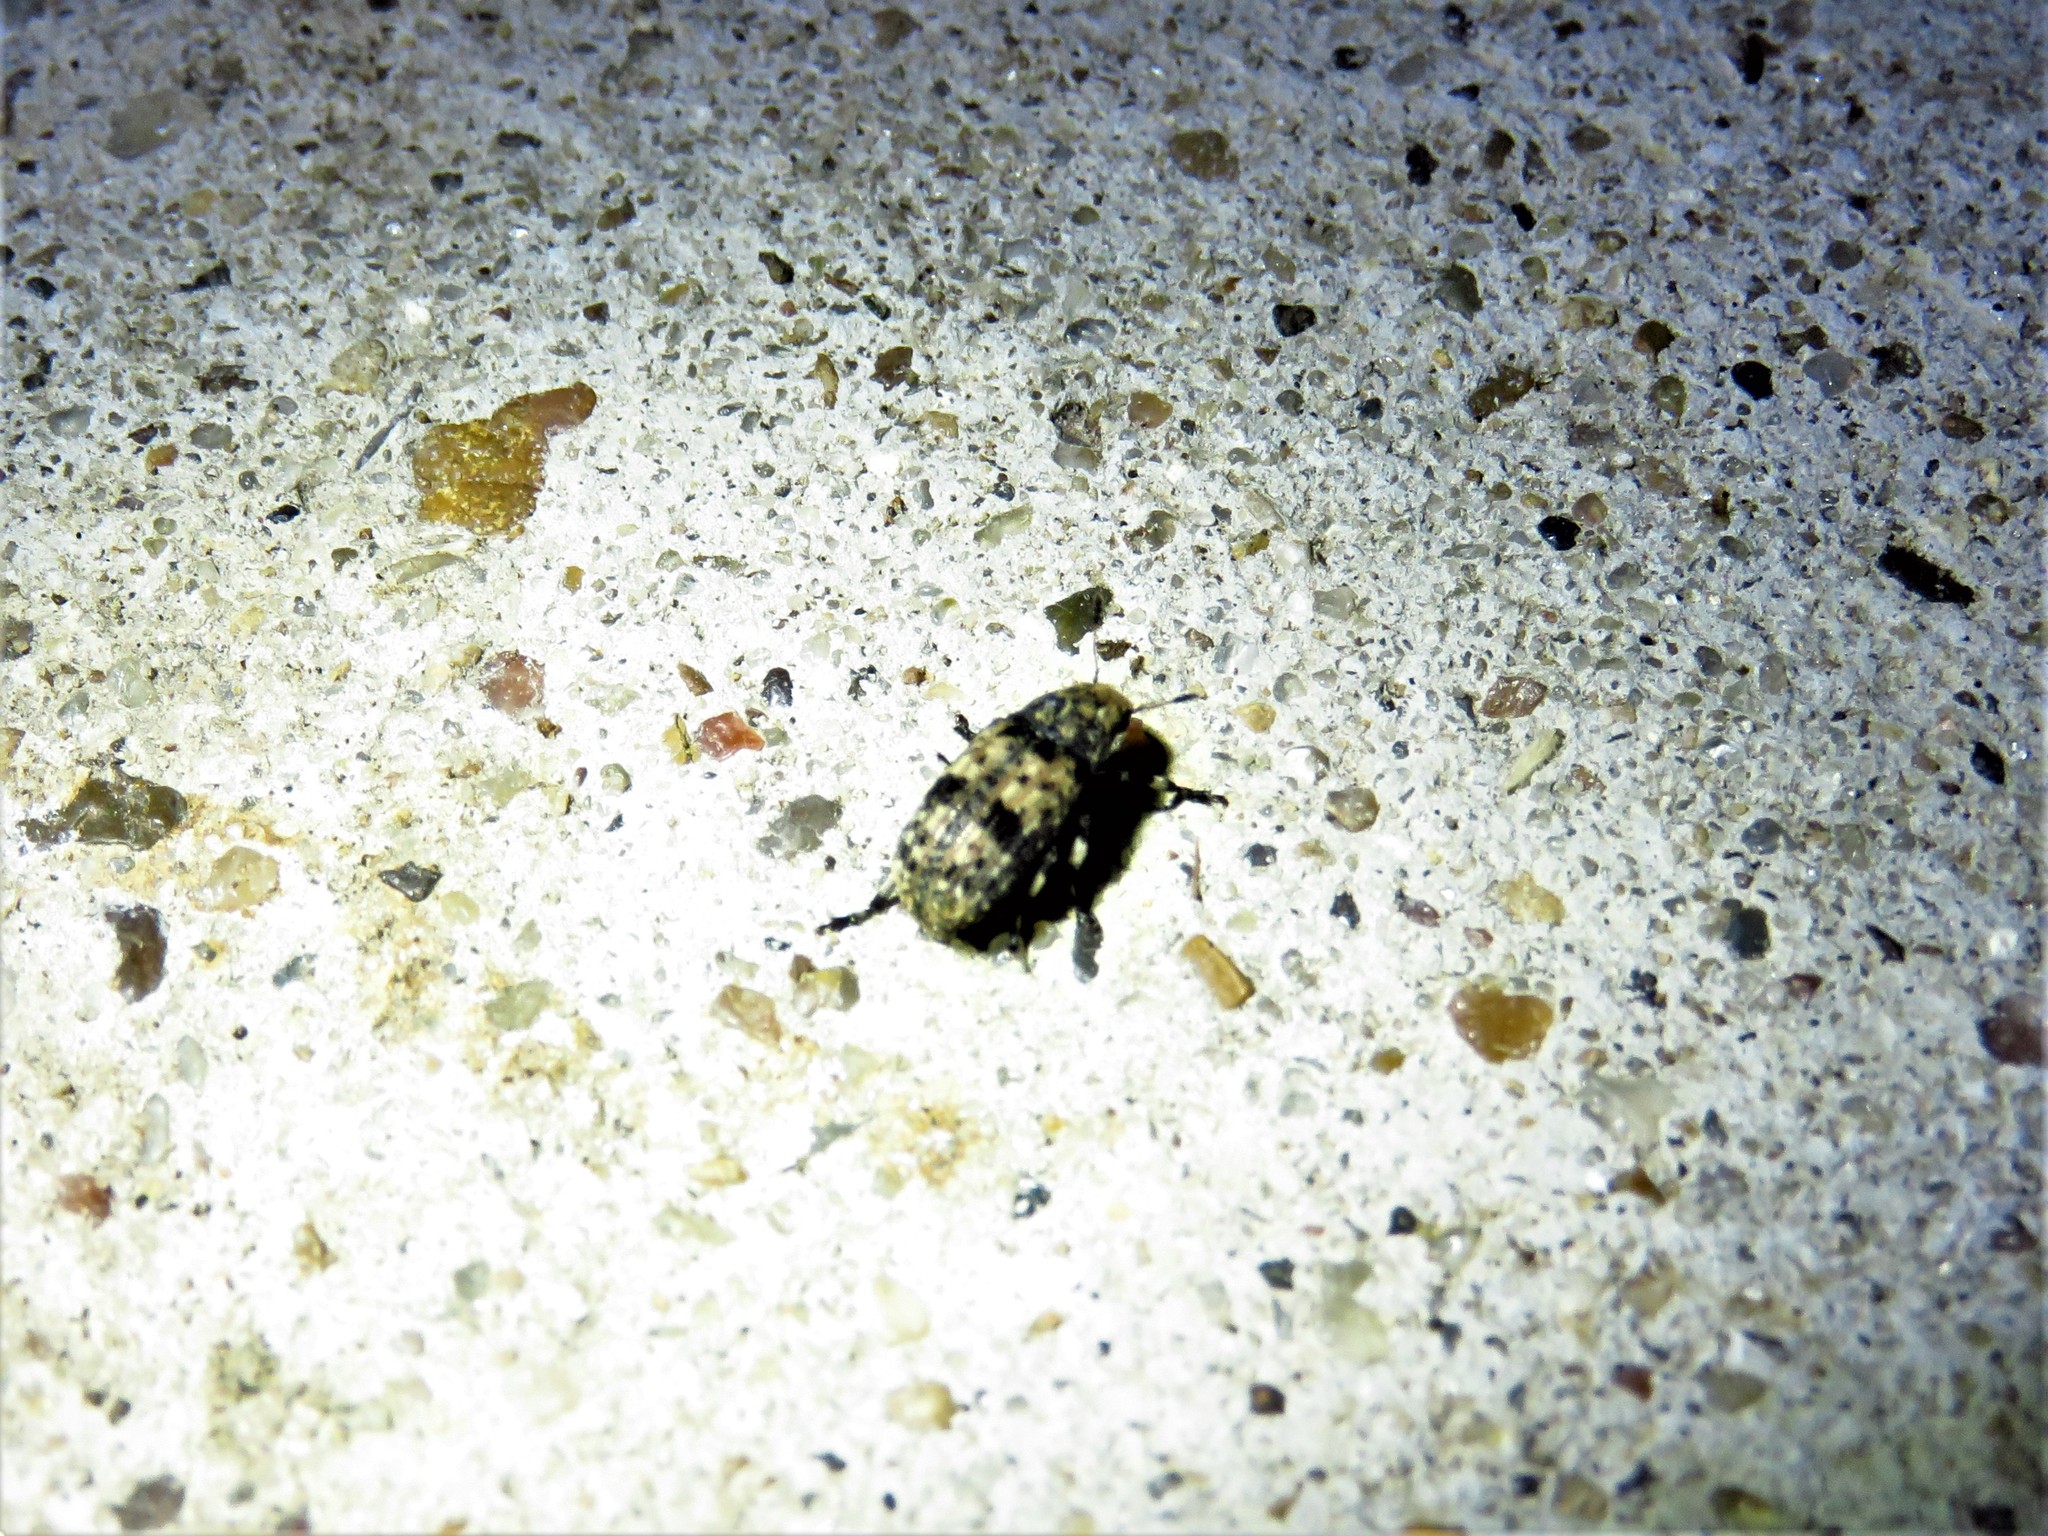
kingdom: Animalia
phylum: Arthropoda
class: Insecta
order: Coleoptera
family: Anthribidae
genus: Euparius
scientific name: Euparius marmoreus
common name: Marbled fungus weevil
